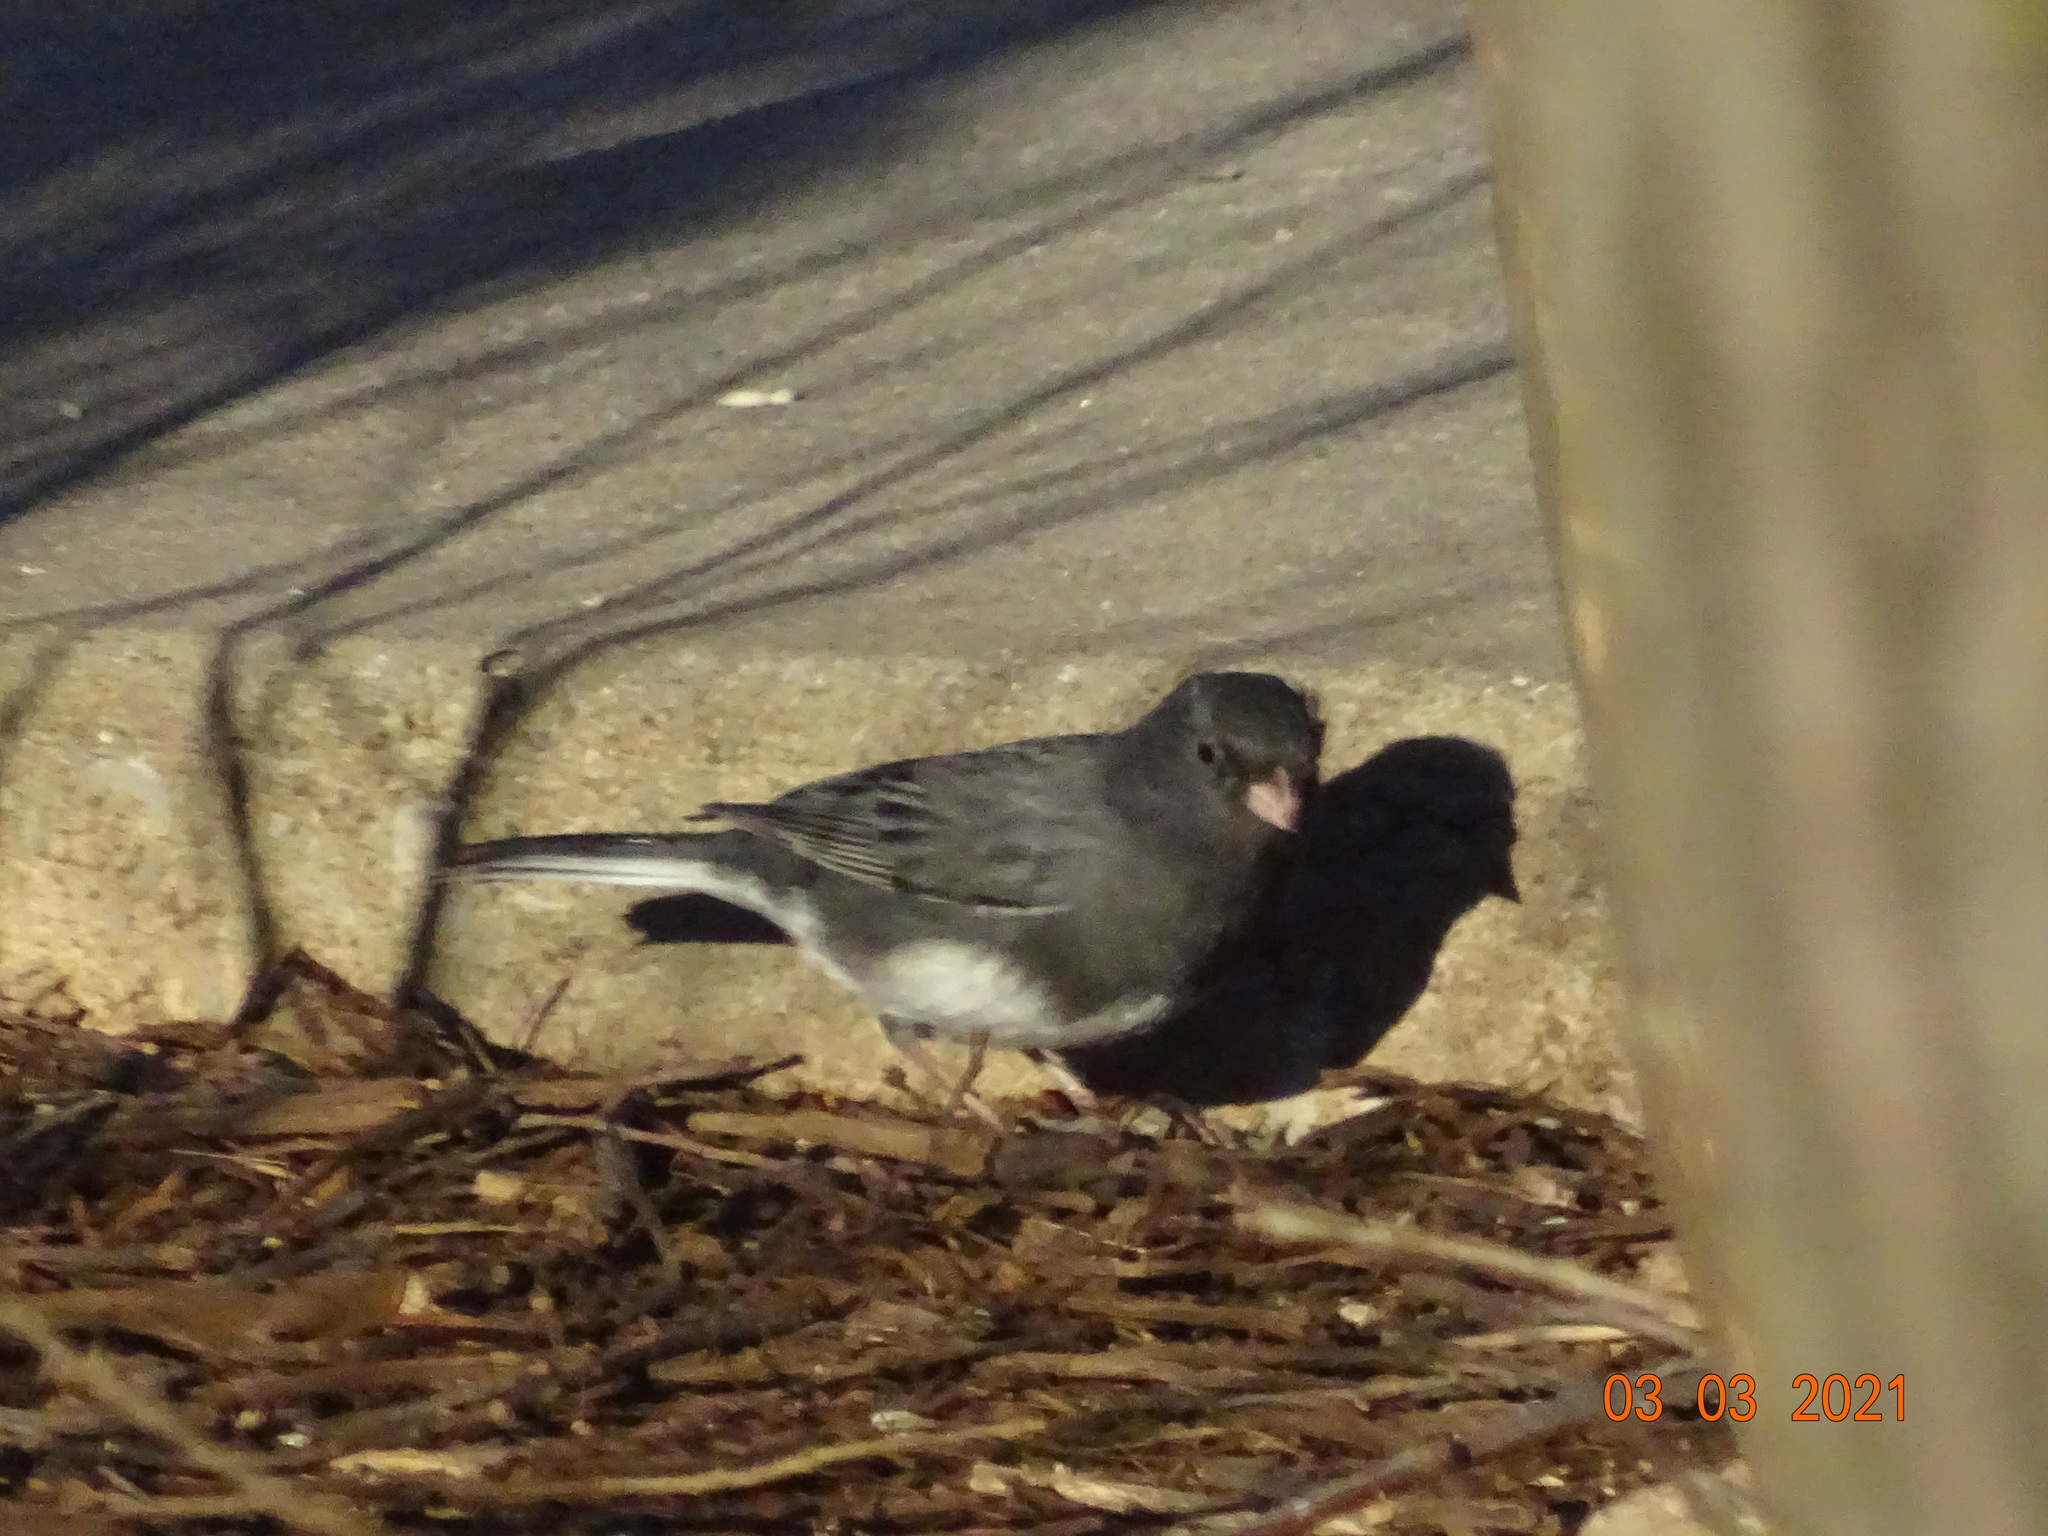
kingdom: Animalia
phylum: Chordata
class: Aves
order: Passeriformes
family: Passerellidae
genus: Junco
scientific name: Junco hyemalis
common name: Dark-eyed junco
